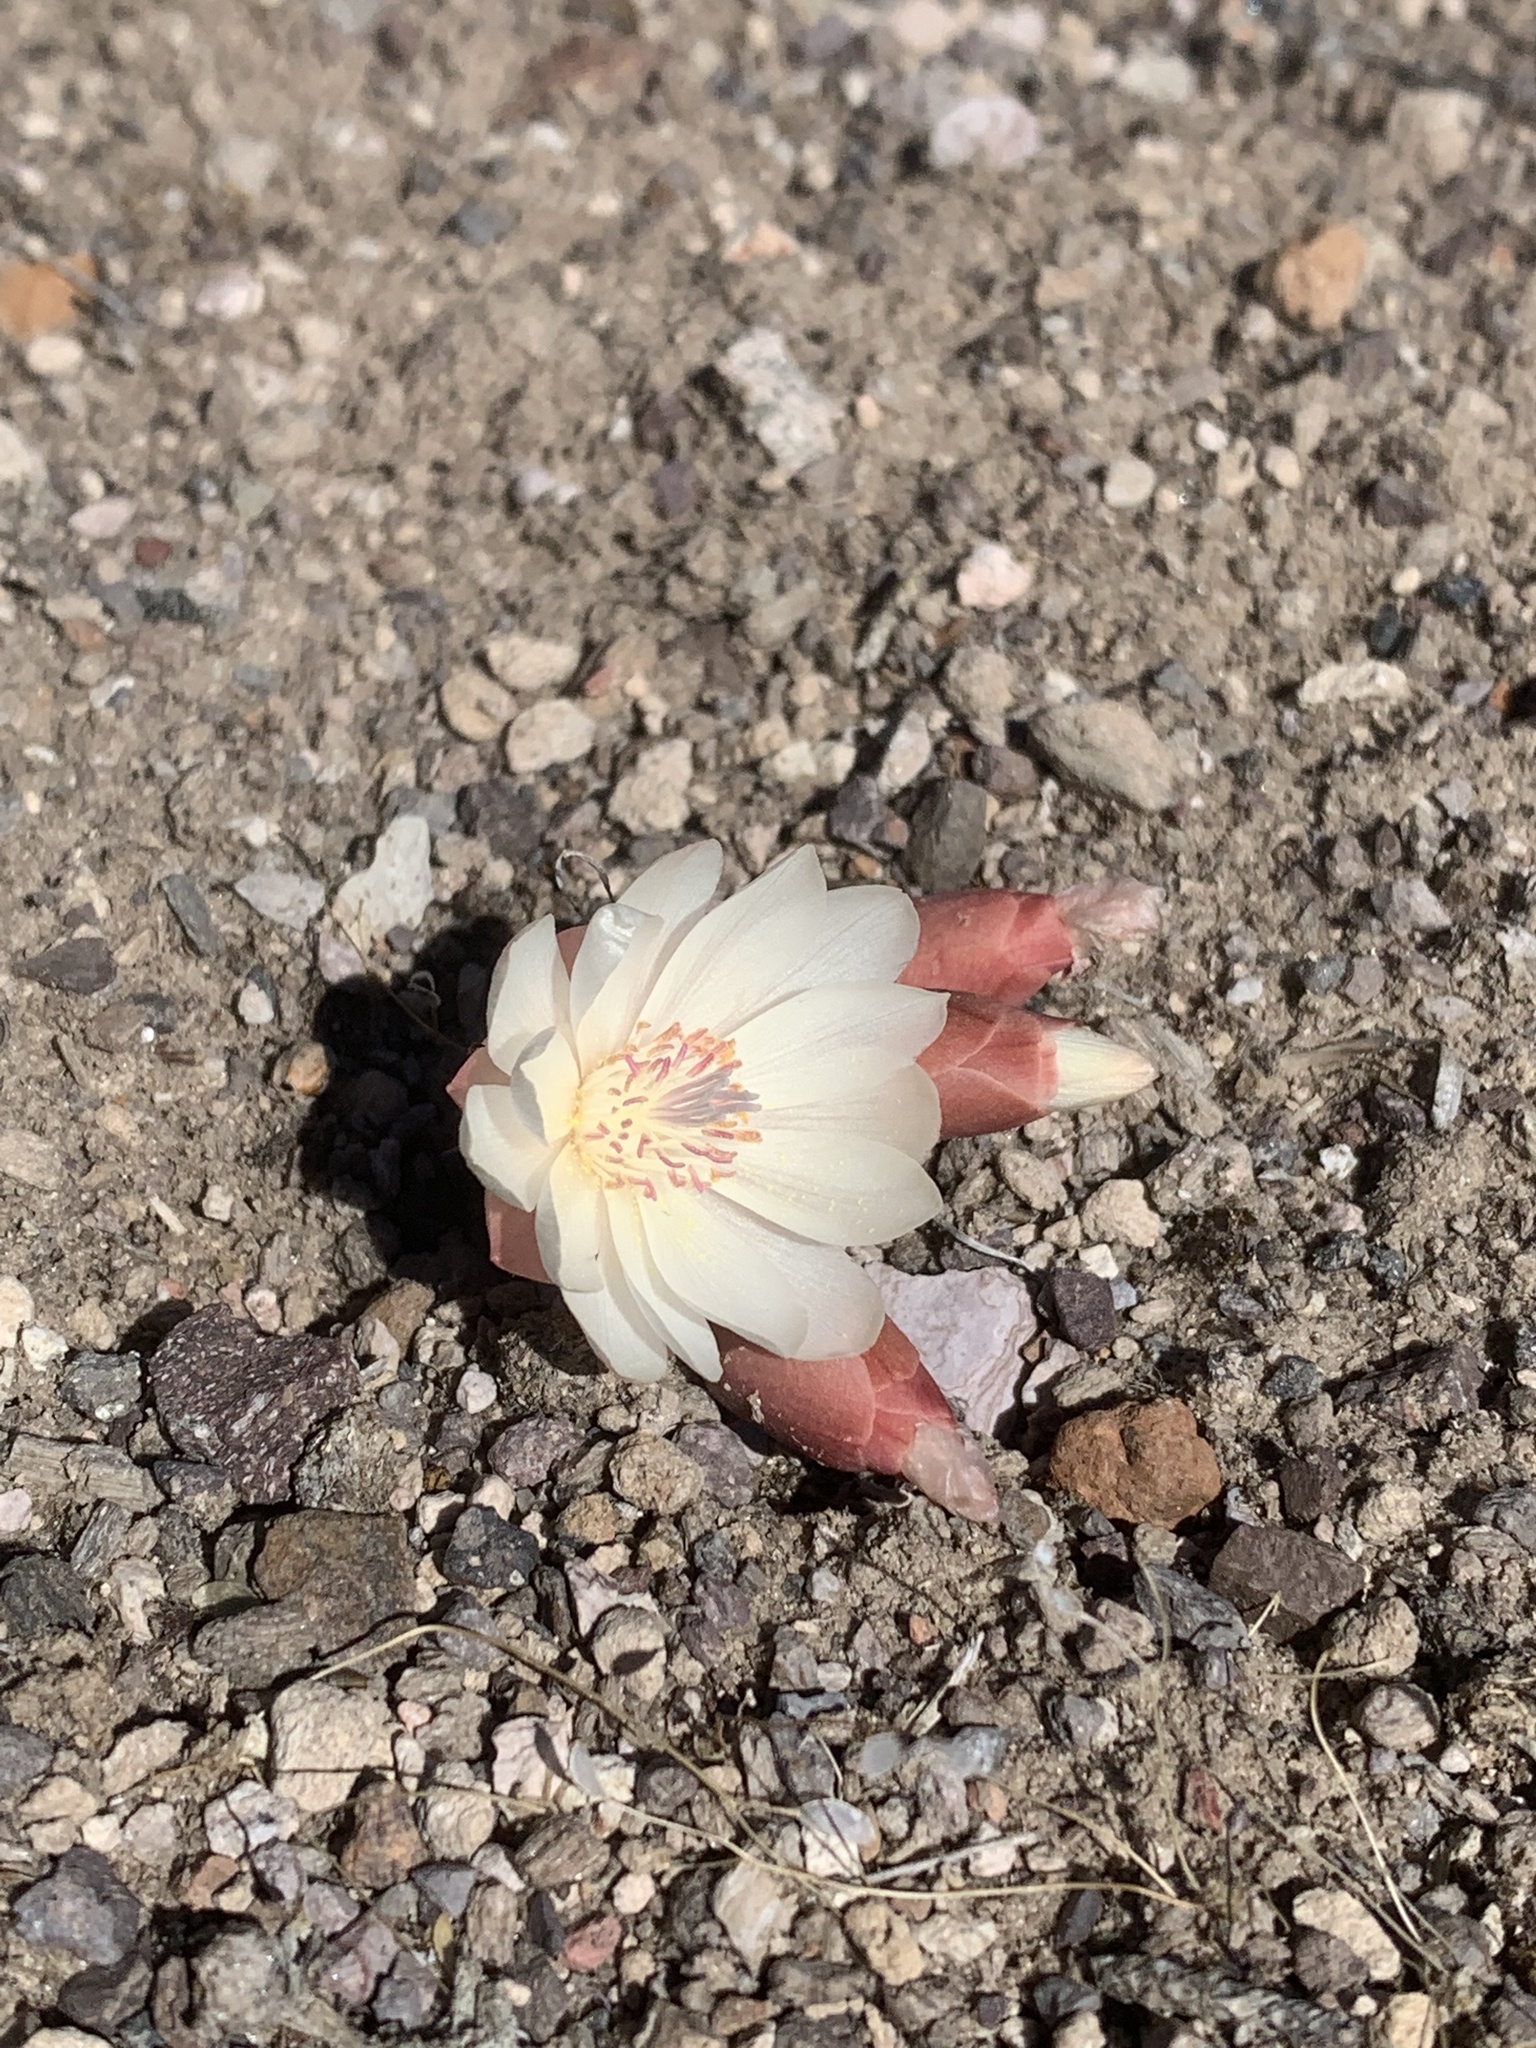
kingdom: Plantae
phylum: Tracheophyta
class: Magnoliopsida
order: Caryophyllales
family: Montiaceae
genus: Lewisia
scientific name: Lewisia rediviva
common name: Bitter-root
